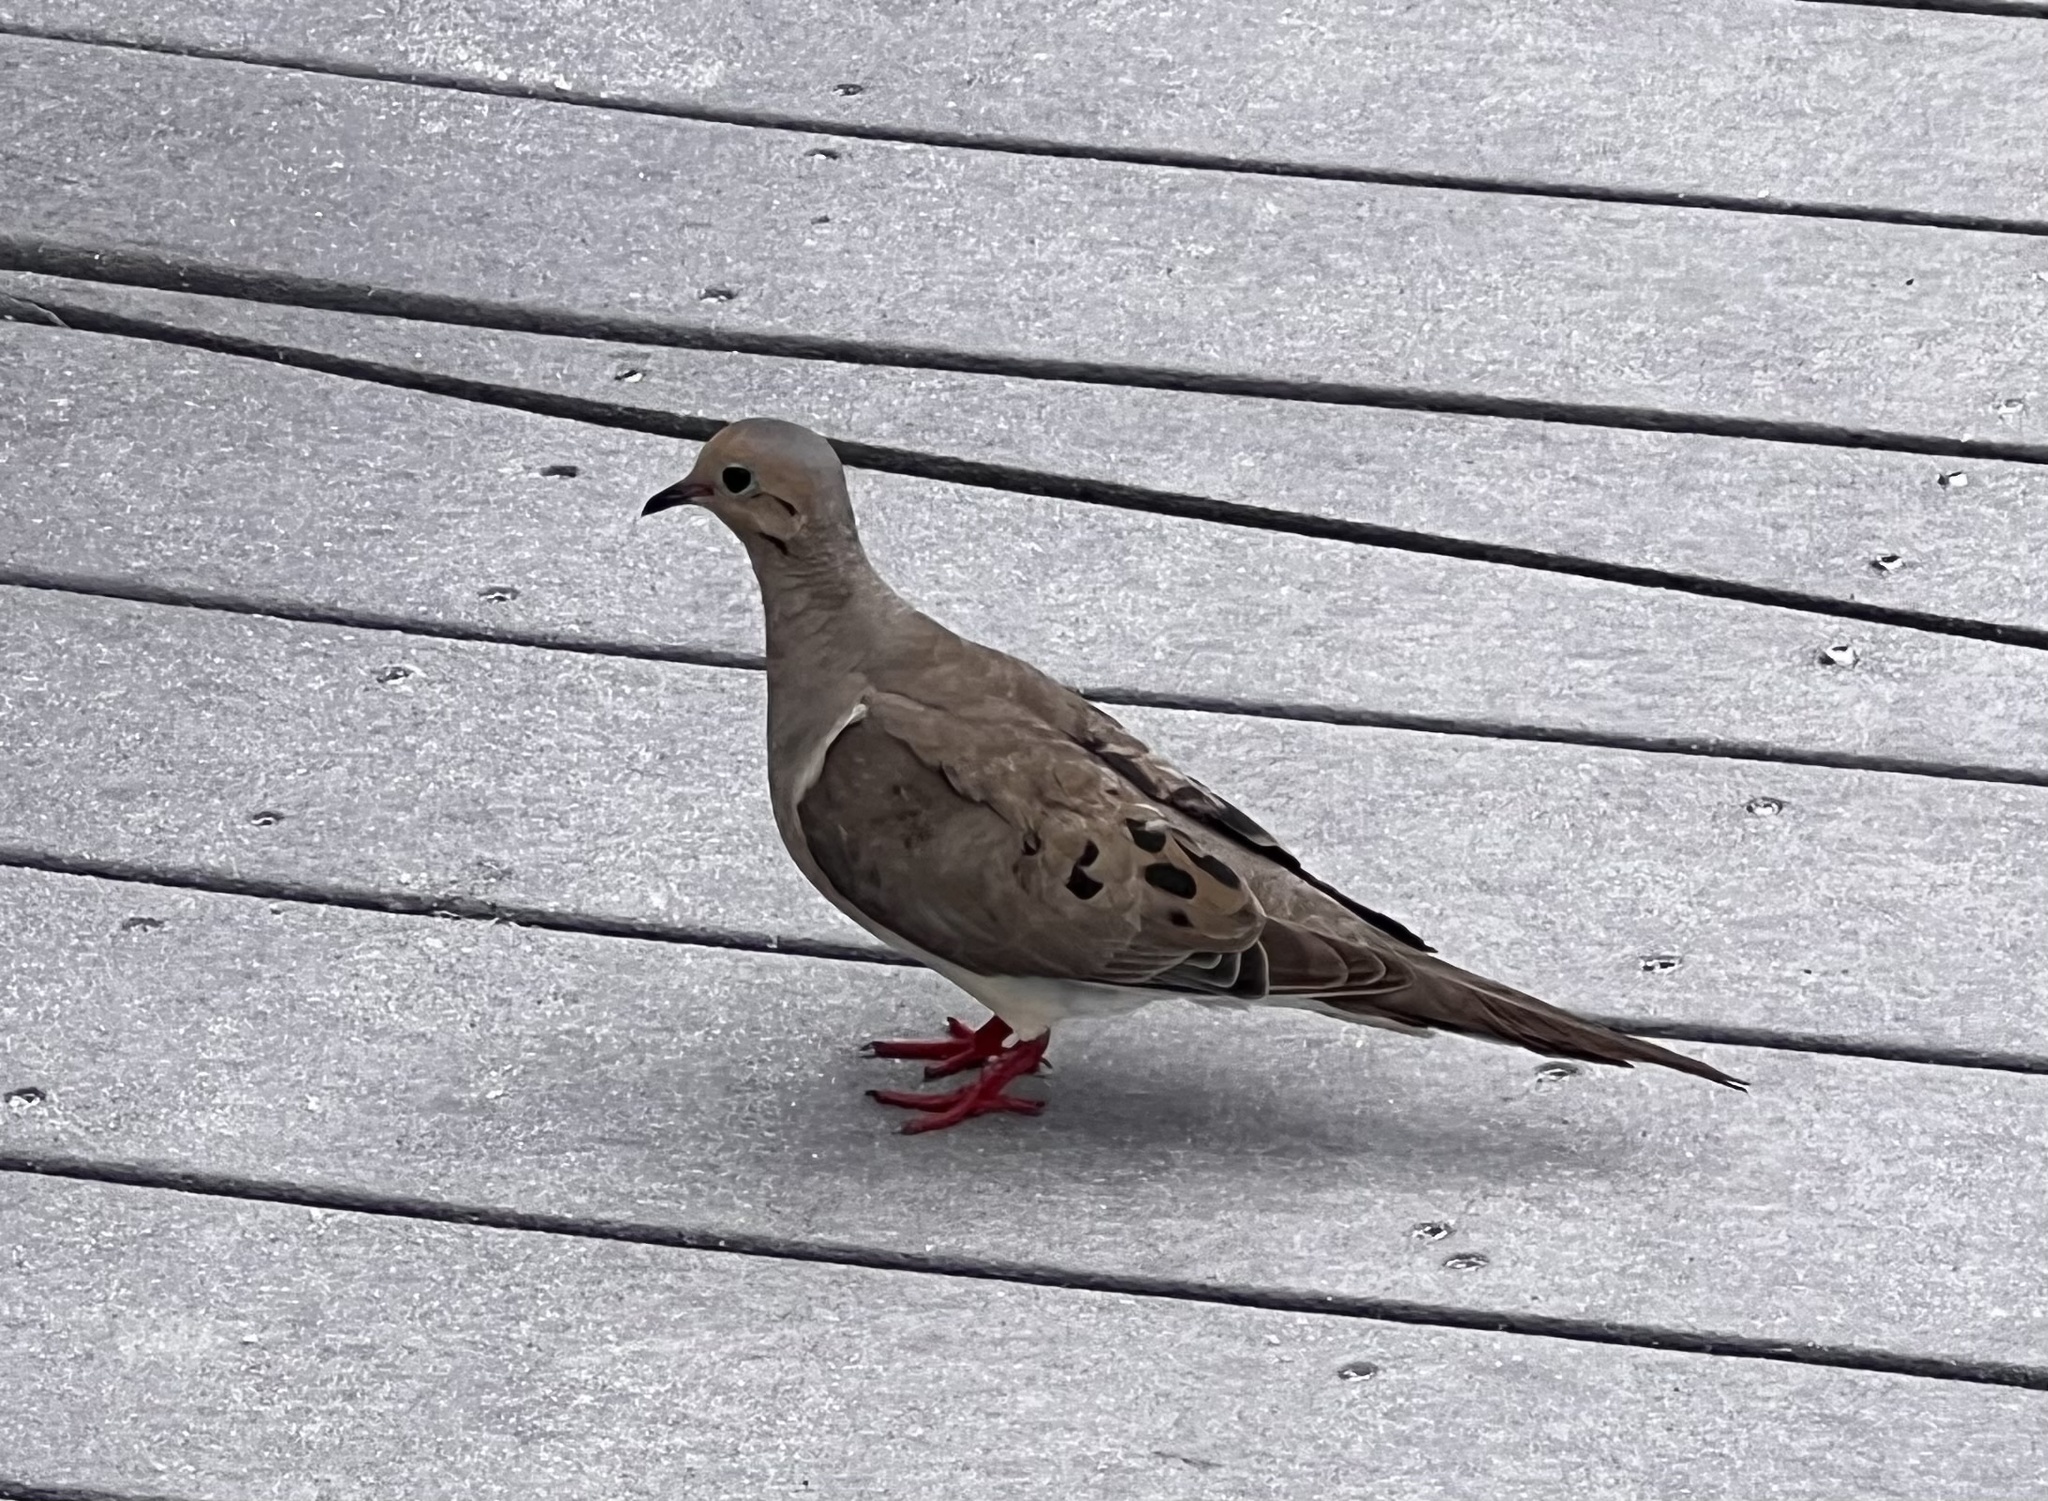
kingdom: Animalia
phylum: Chordata
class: Aves
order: Columbiformes
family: Columbidae
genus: Zenaida
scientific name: Zenaida macroura
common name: Mourning dove
